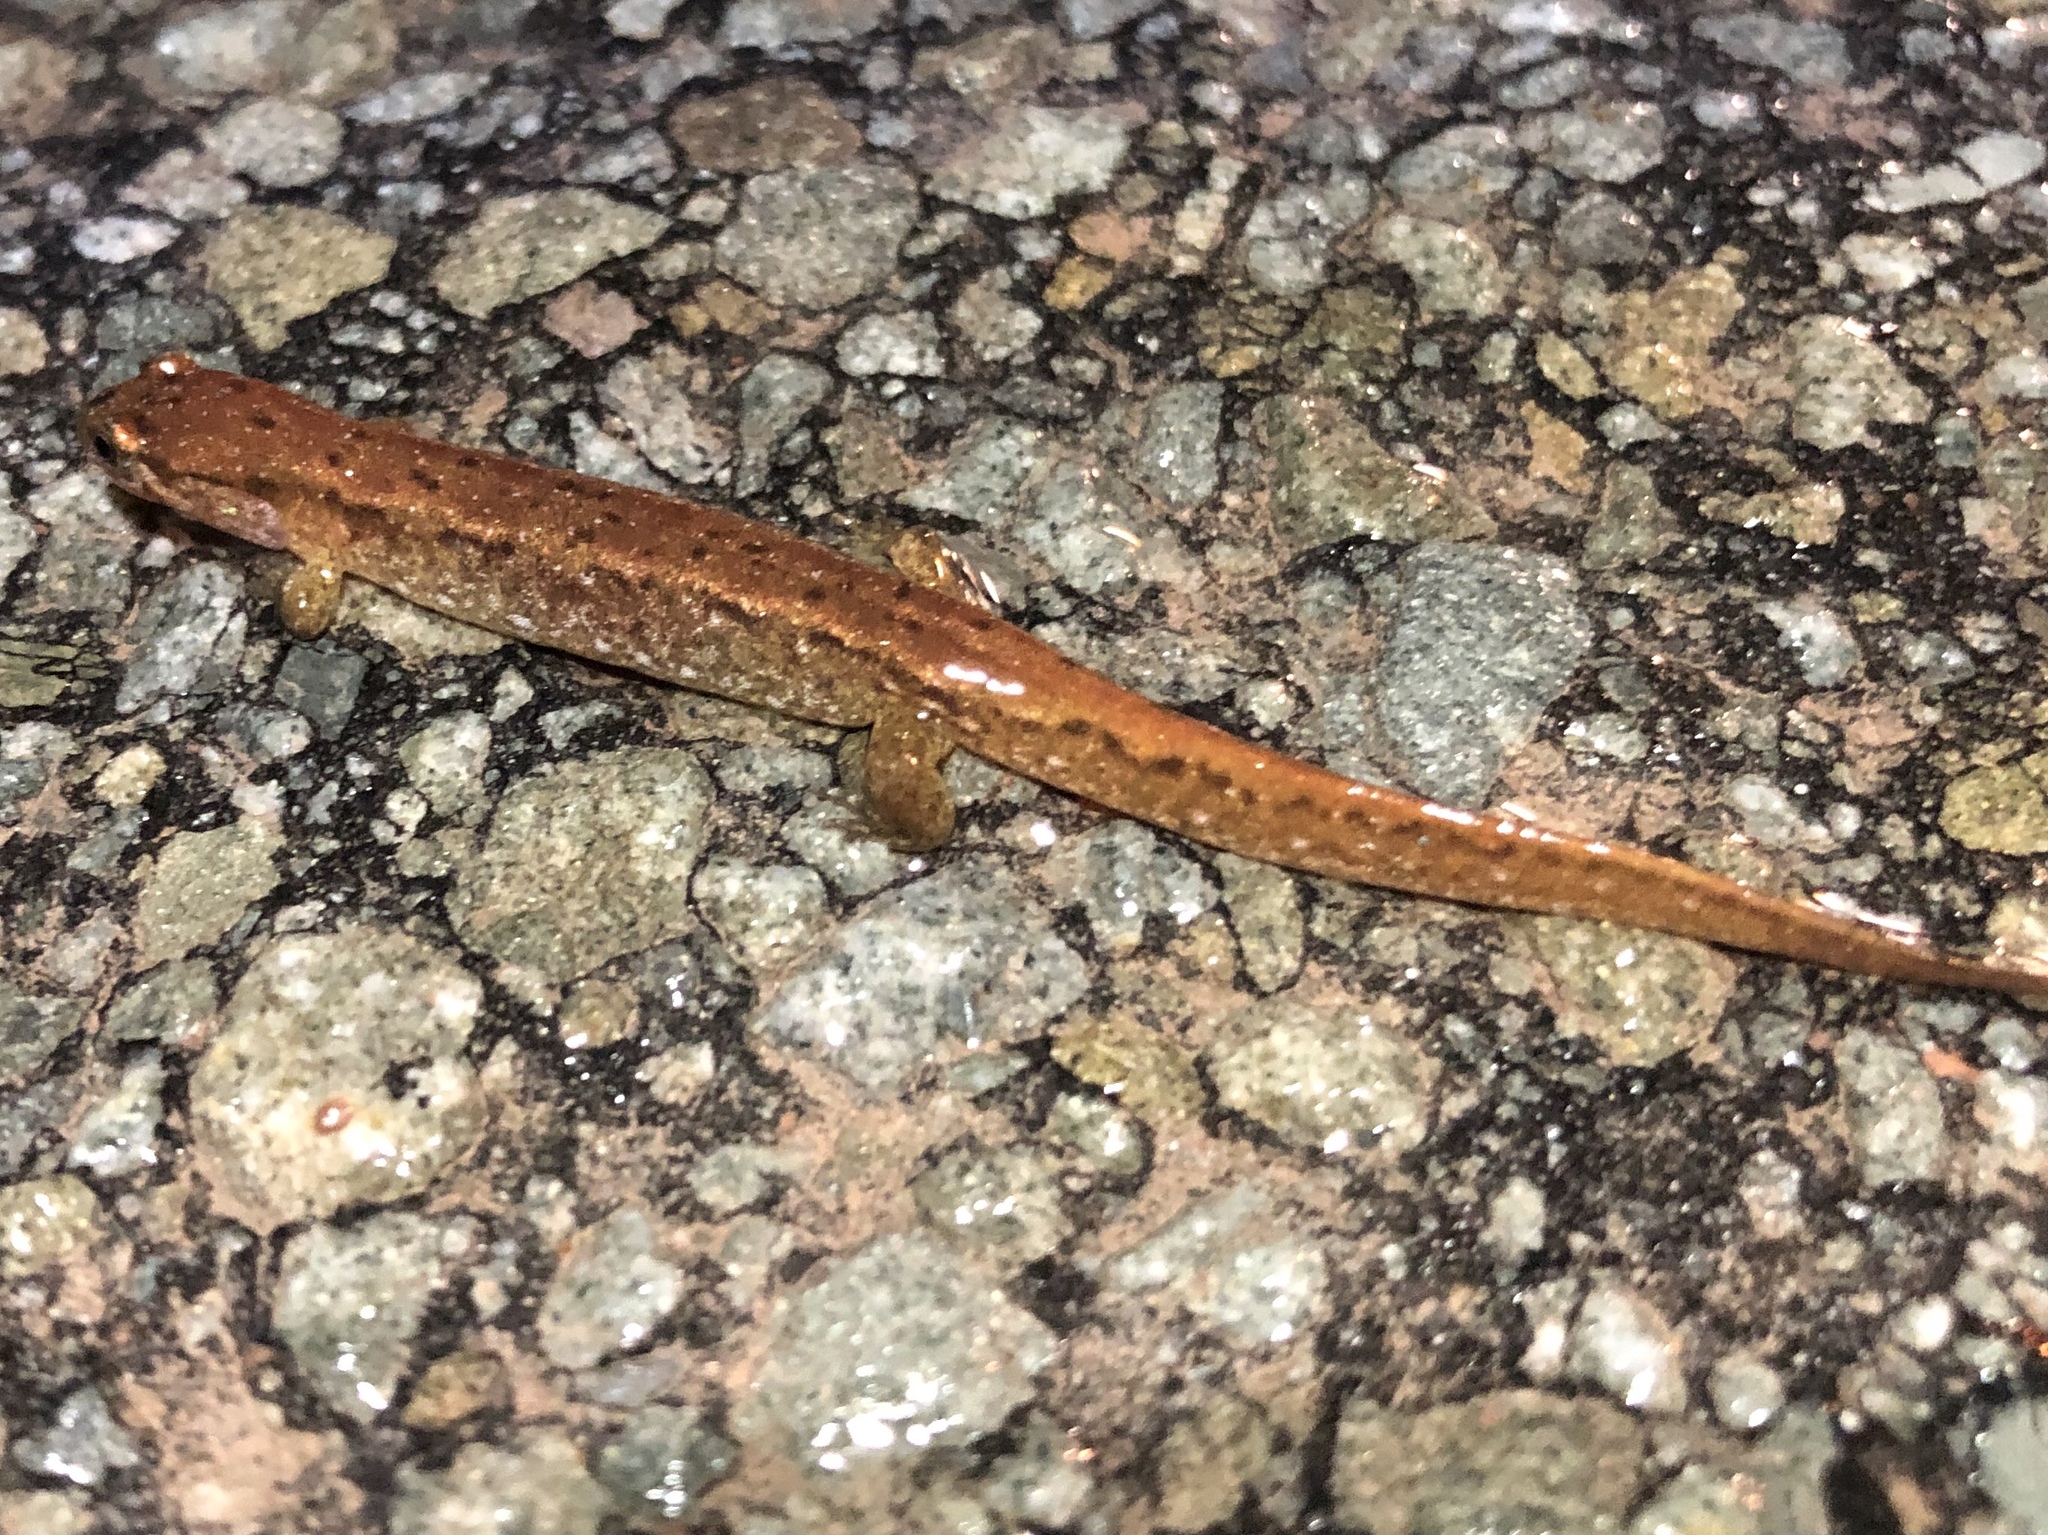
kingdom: Animalia
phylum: Chordata
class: Amphibia
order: Caudata
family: Plethodontidae
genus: Desmognathus
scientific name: Desmognathus fuscus
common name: Northern dusky salamander
